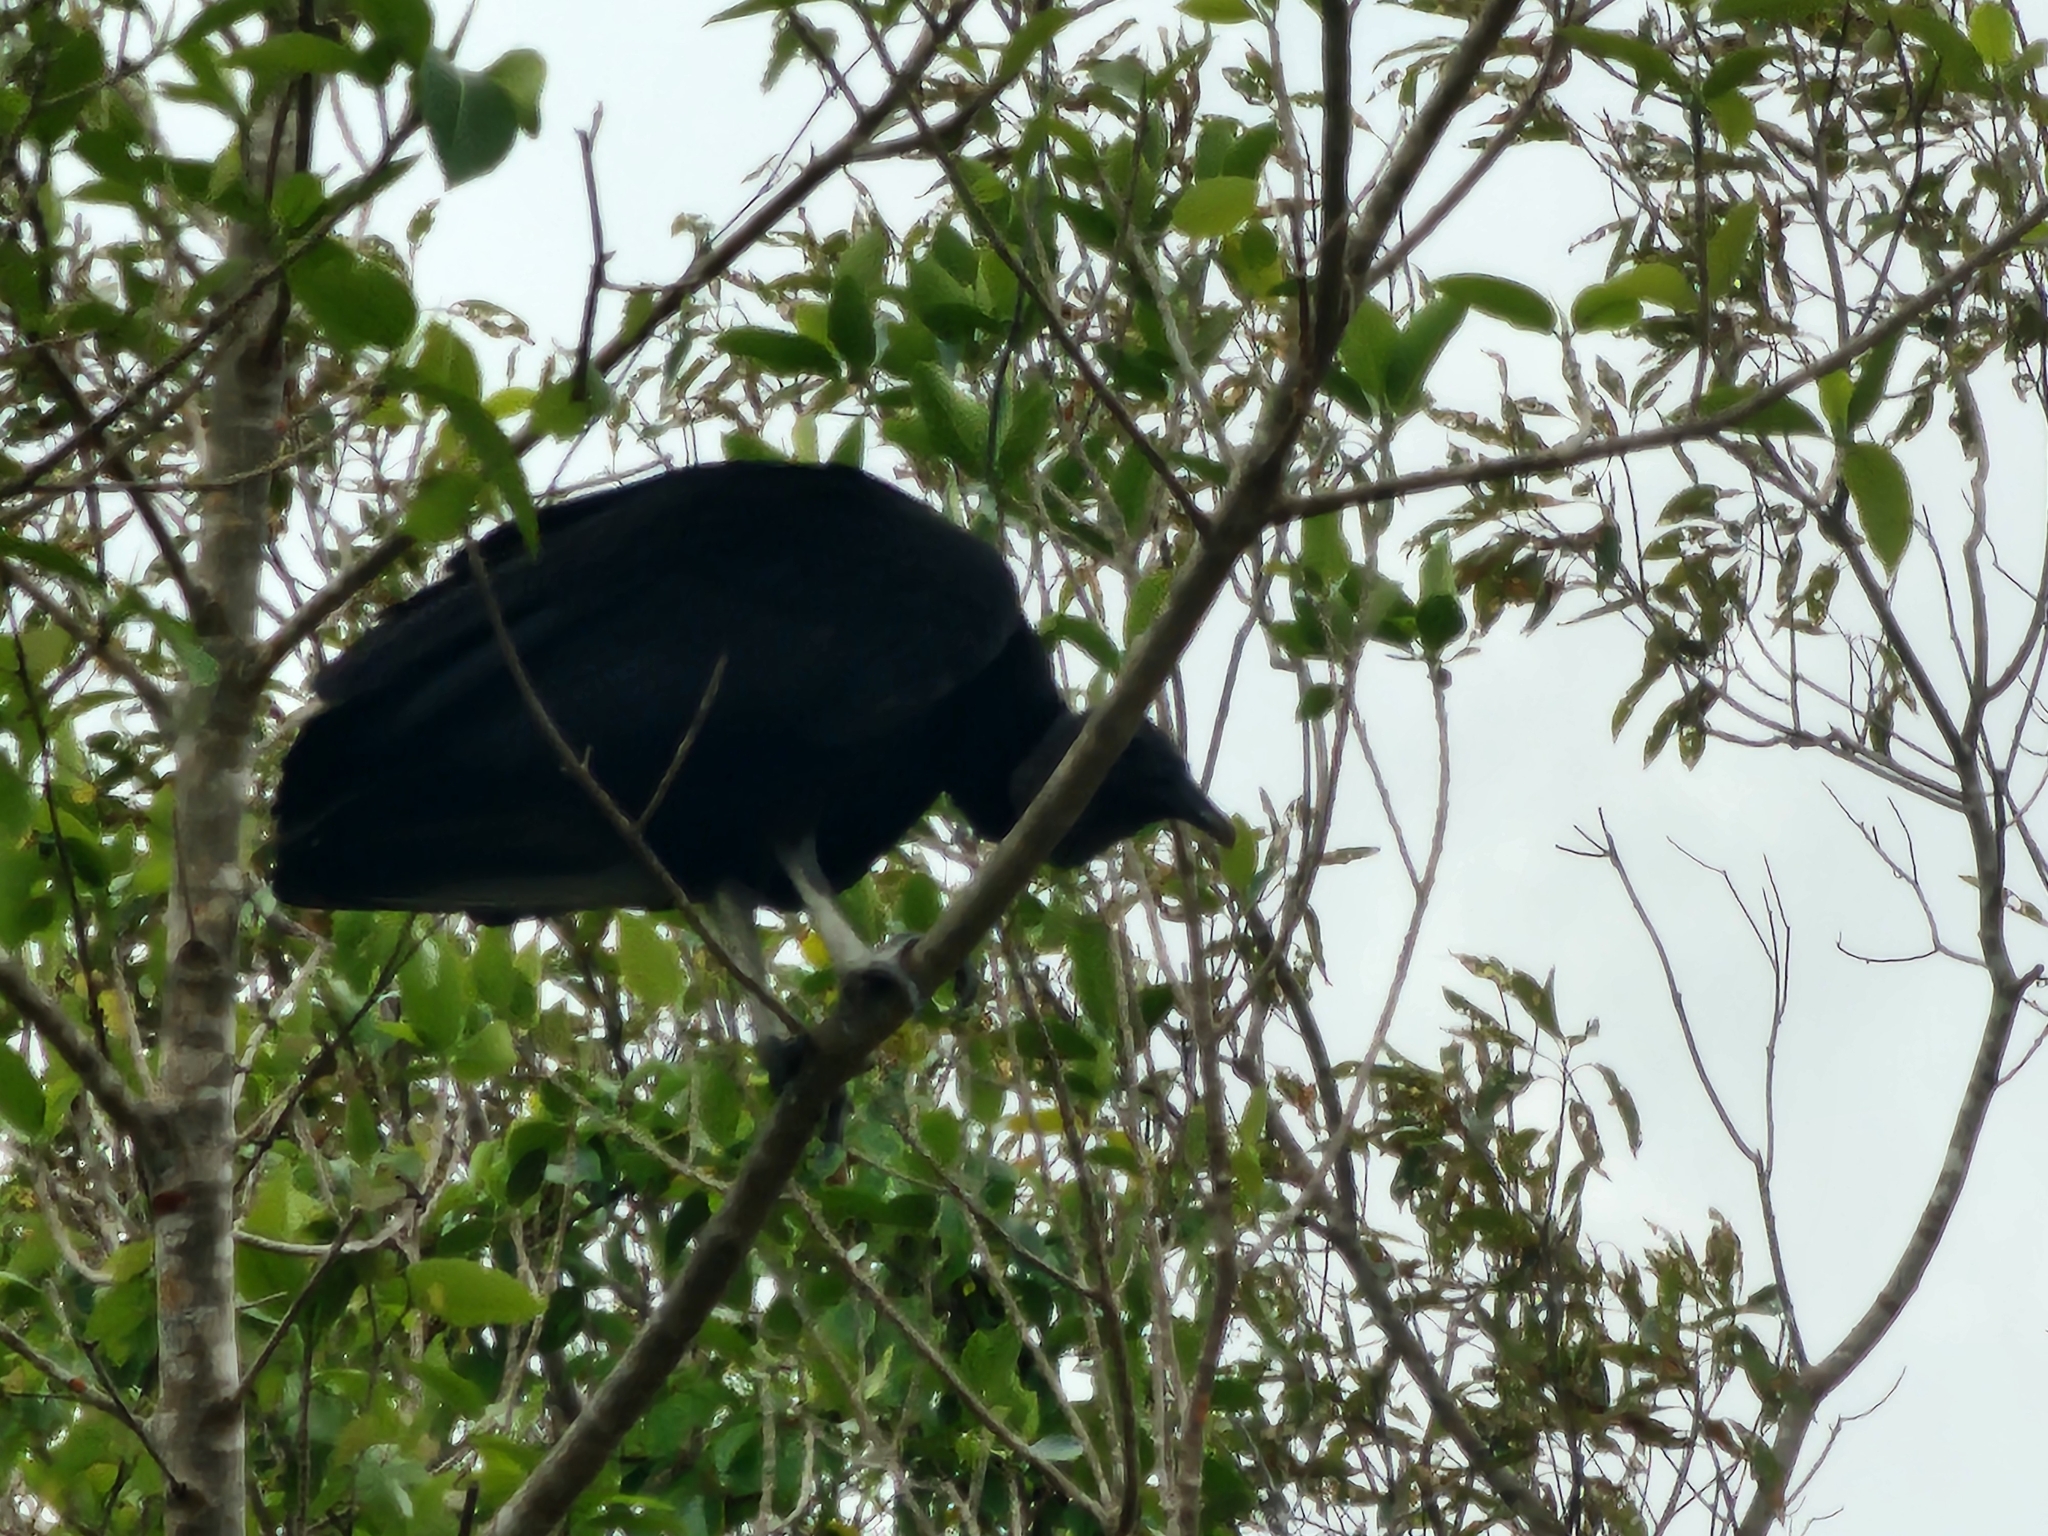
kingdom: Animalia
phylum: Chordata
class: Aves
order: Accipitriformes
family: Cathartidae
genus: Coragyps
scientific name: Coragyps atratus
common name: Black vulture
